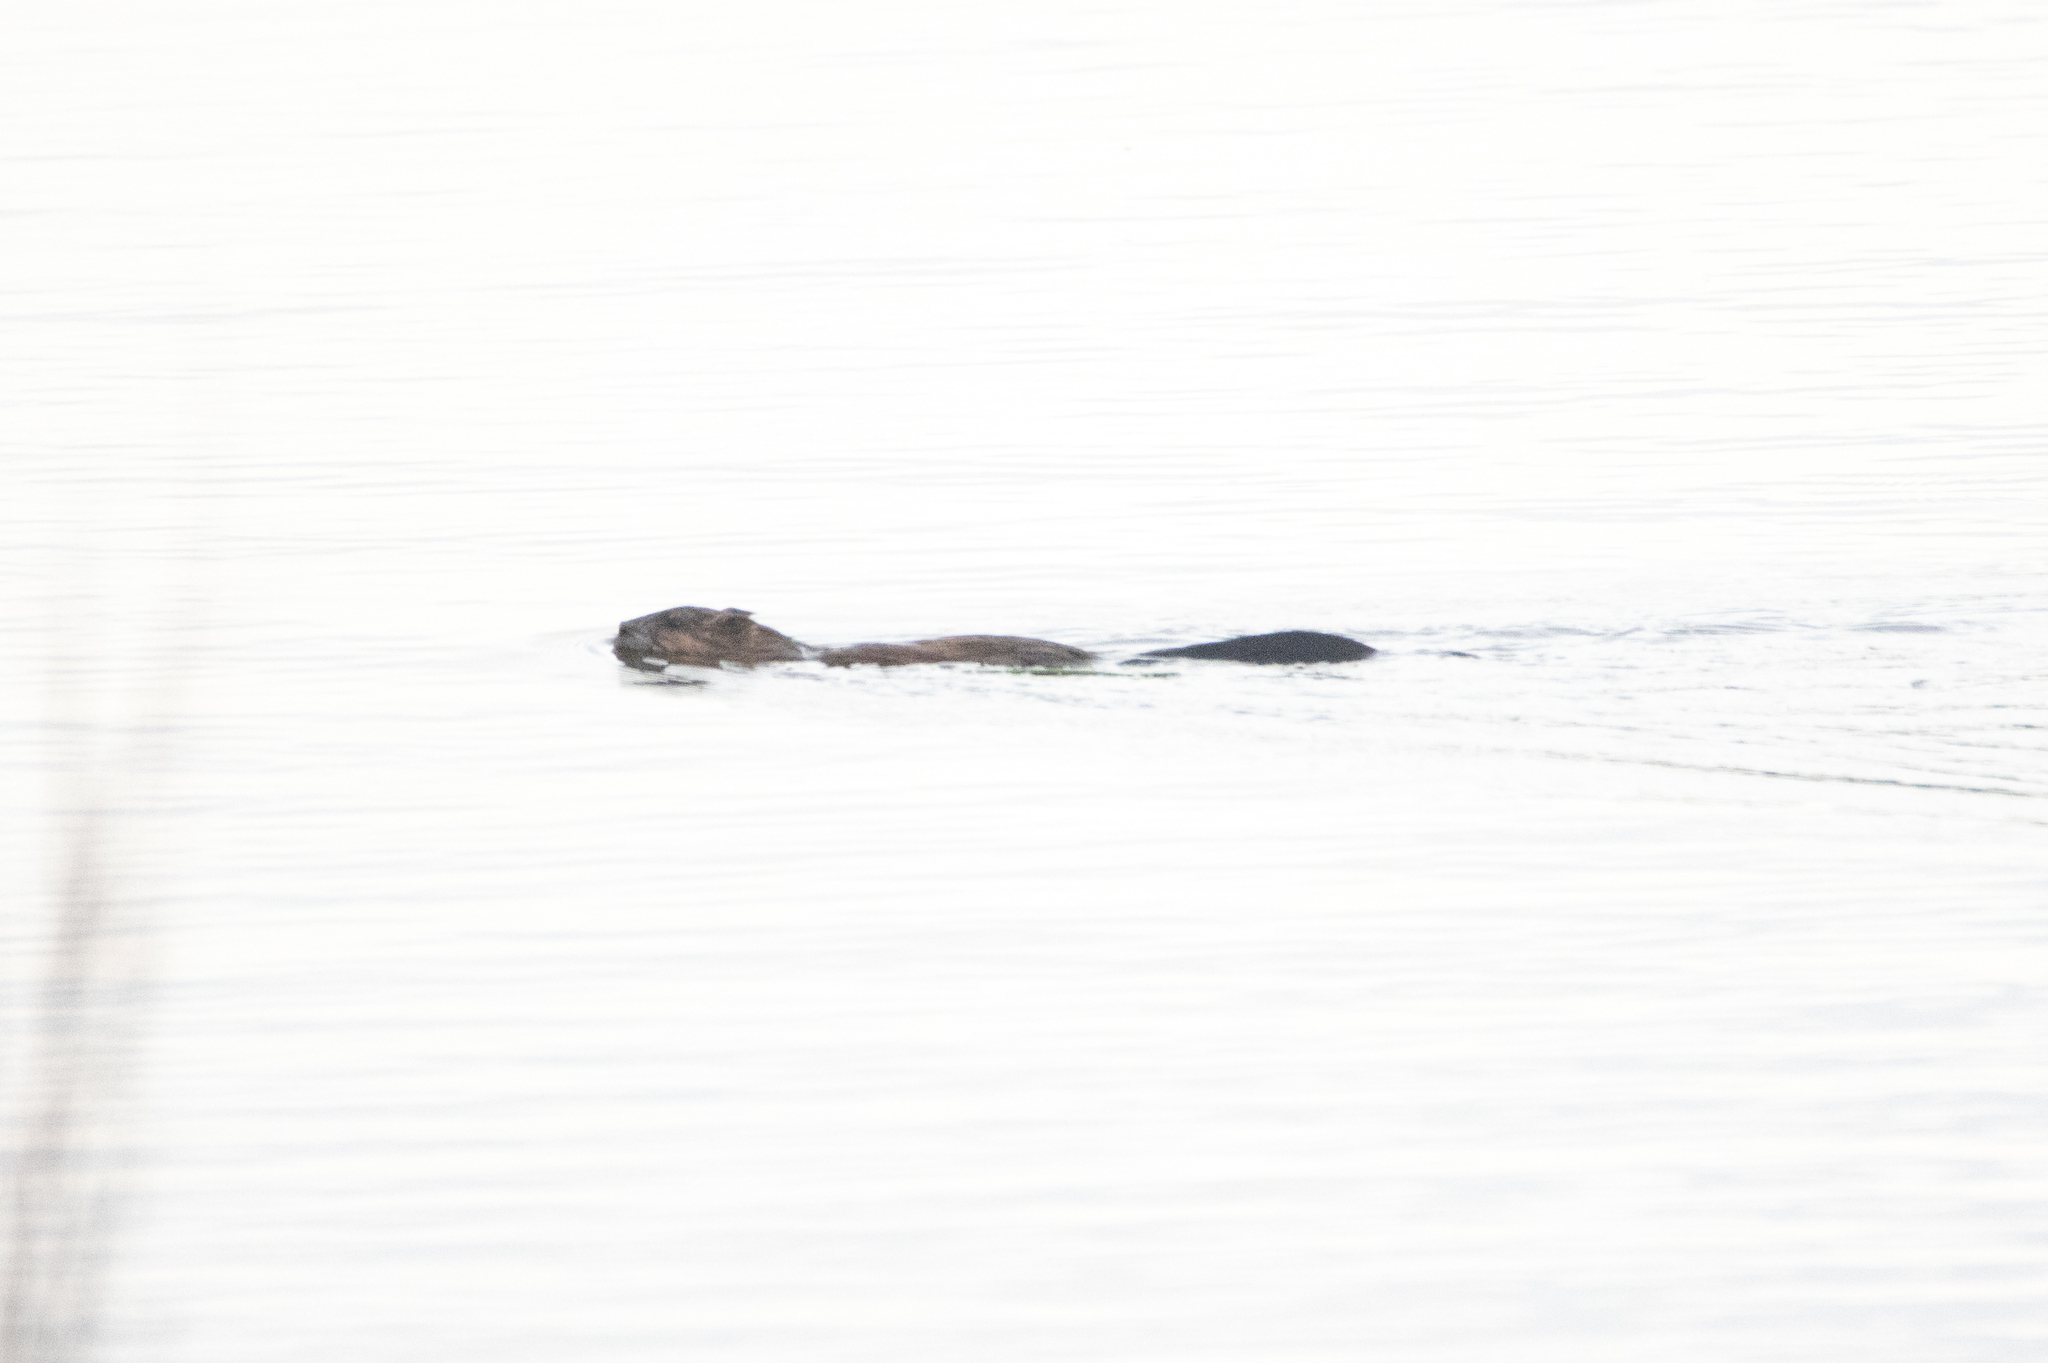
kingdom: Animalia
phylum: Chordata
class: Mammalia
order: Rodentia
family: Cricetidae
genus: Ondatra
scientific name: Ondatra zibethicus
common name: Muskrat
